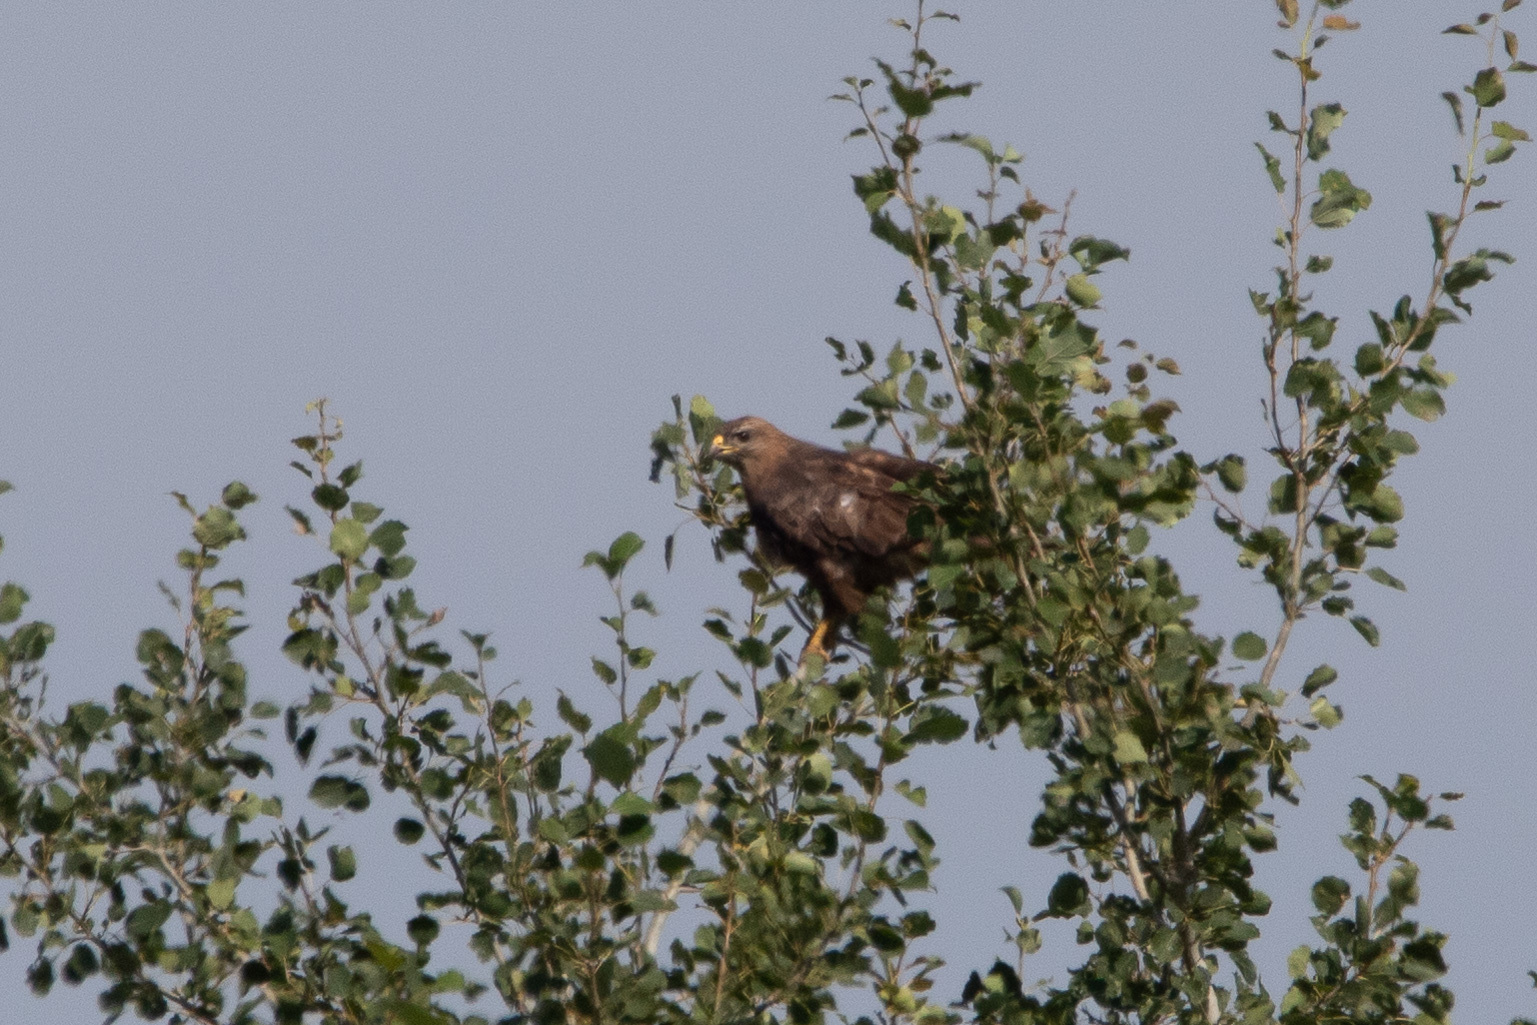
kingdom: Animalia
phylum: Chordata
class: Aves
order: Accipitriformes
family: Accipitridae
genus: Buteo
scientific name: Buteo buteo
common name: Common buzzard
